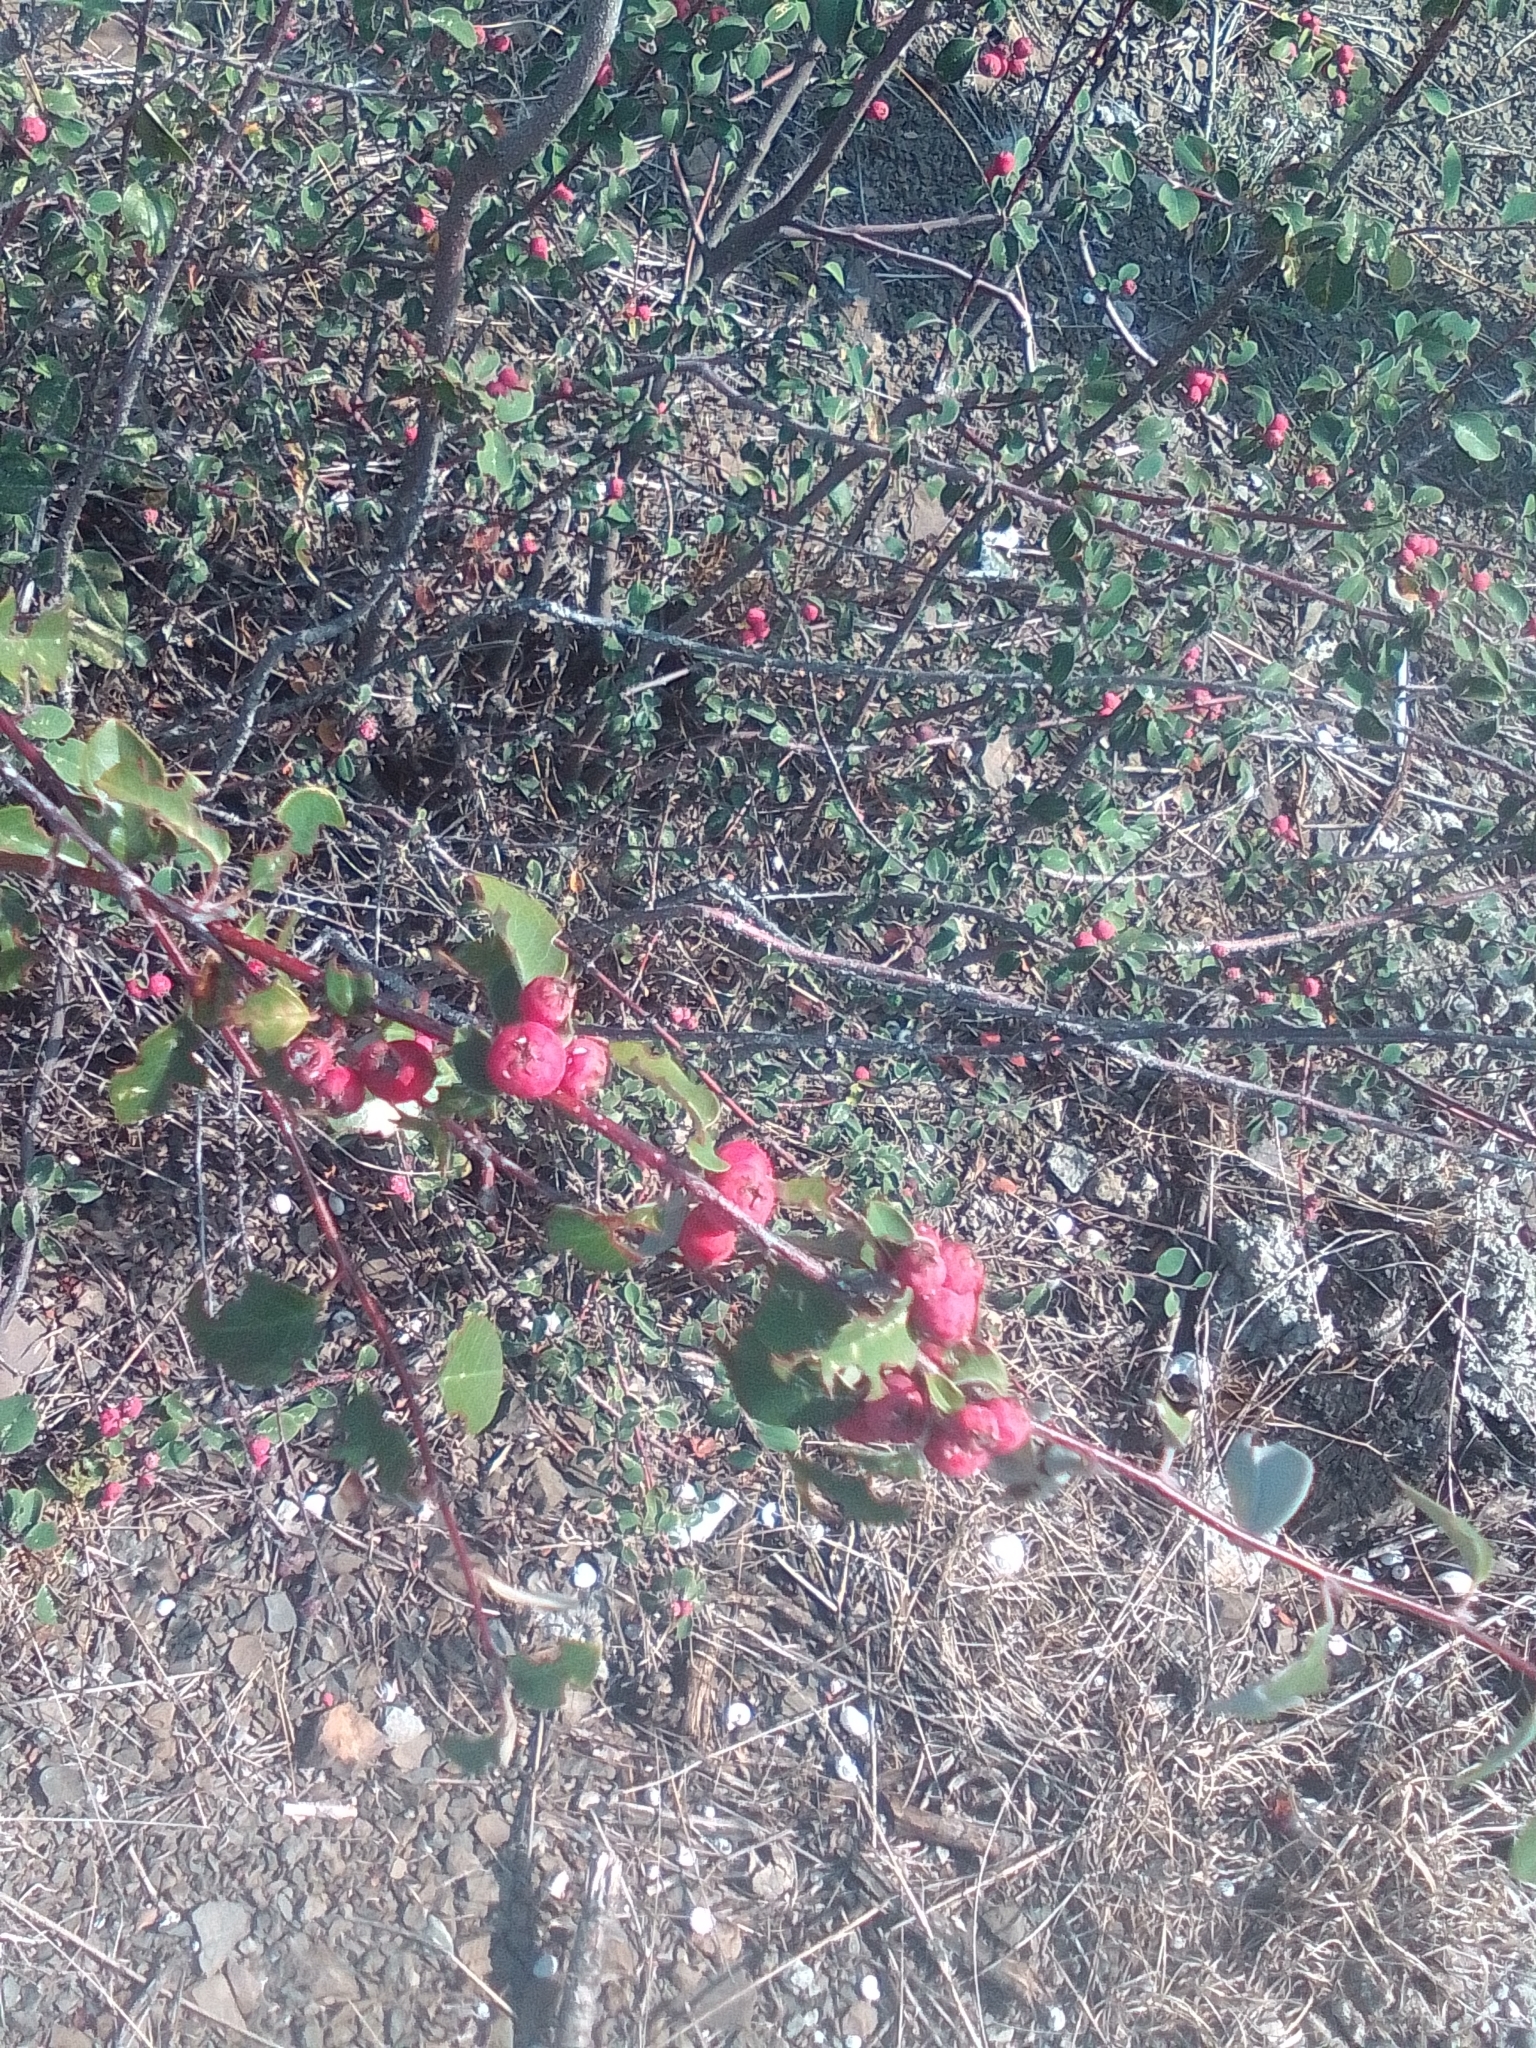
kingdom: Plantae
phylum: Tracheophyta
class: Magnoliopsida
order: Rosales
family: Rosaceae
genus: Cotoneaster
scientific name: Cotoneaster integerrimus
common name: Wild cotoneaster
